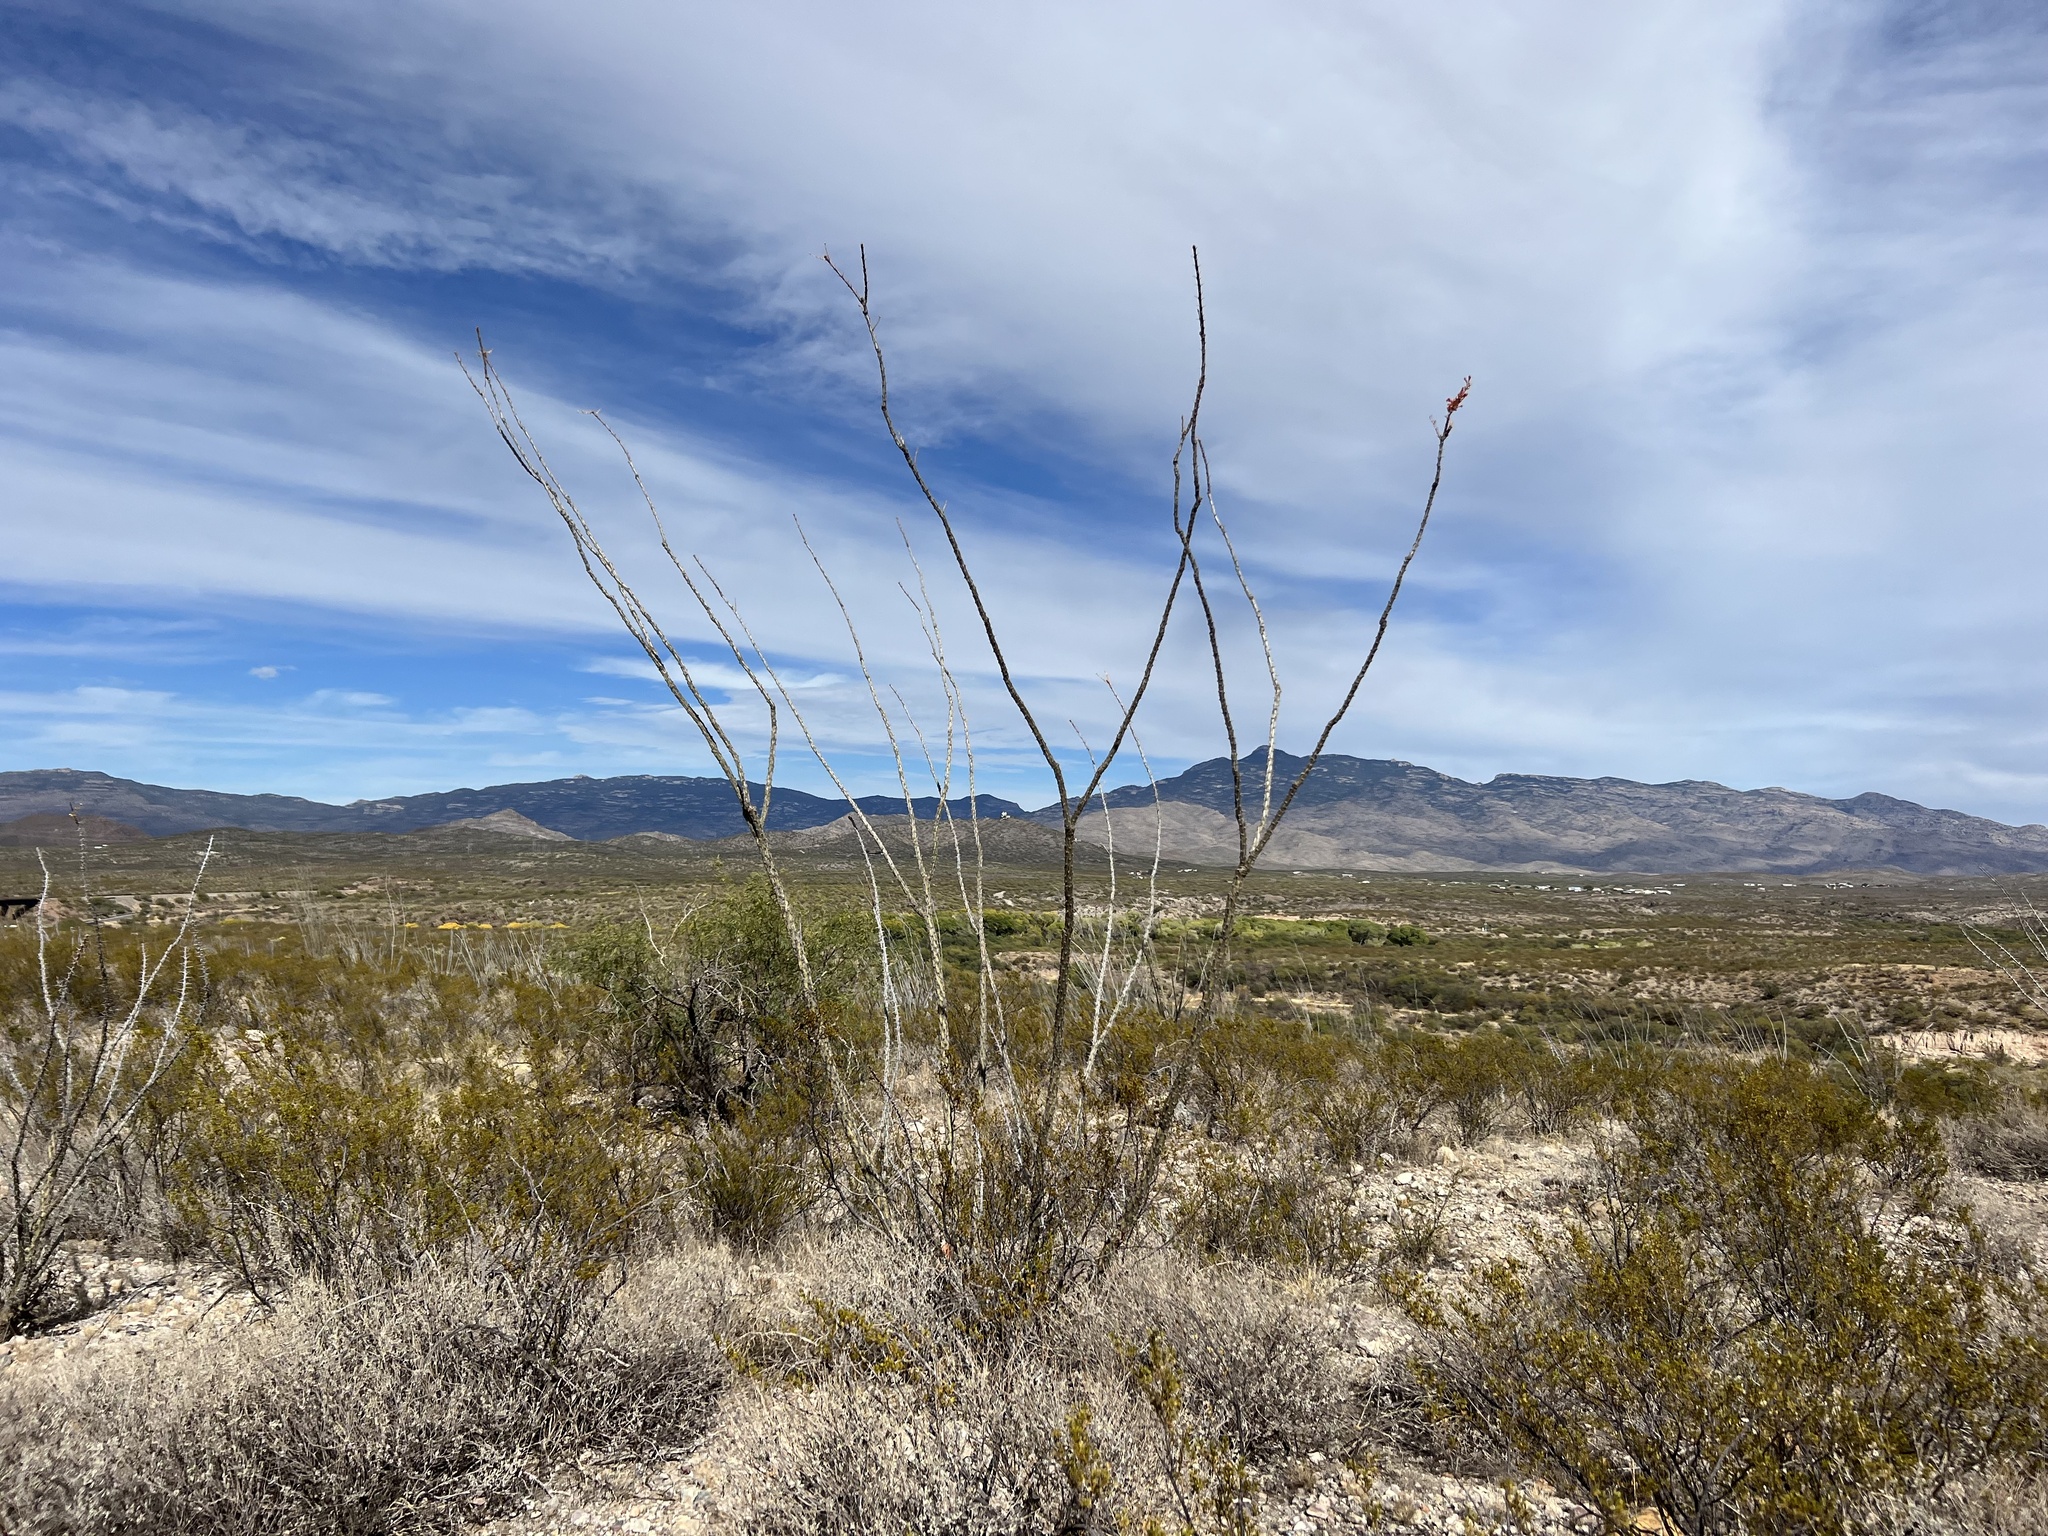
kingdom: Plantae
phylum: Tracheophyta
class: Magnoliopsida
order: Ericales
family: Fouquieriaceae
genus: Fouquieria
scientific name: Fouquieria splendens
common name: Vine-cactus
